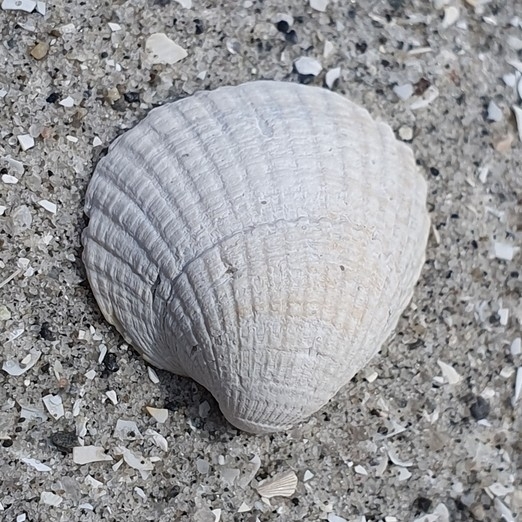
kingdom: Animalia
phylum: Mollusca
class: Bivalvia
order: Cardiida
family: Cardiidae
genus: Cerastoderma
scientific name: Cerastoderma edule
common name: Common cockle
